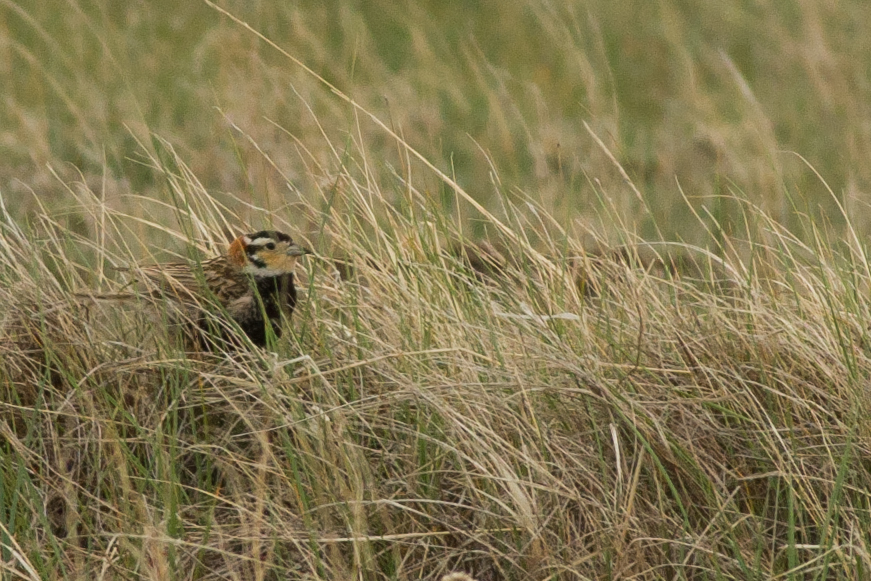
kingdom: Animalia
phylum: Chordata
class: Aves
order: Passeriformes
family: Calcariidae
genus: Calcarius
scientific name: Calcarius ornatus
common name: Chestnut-collared longspur
